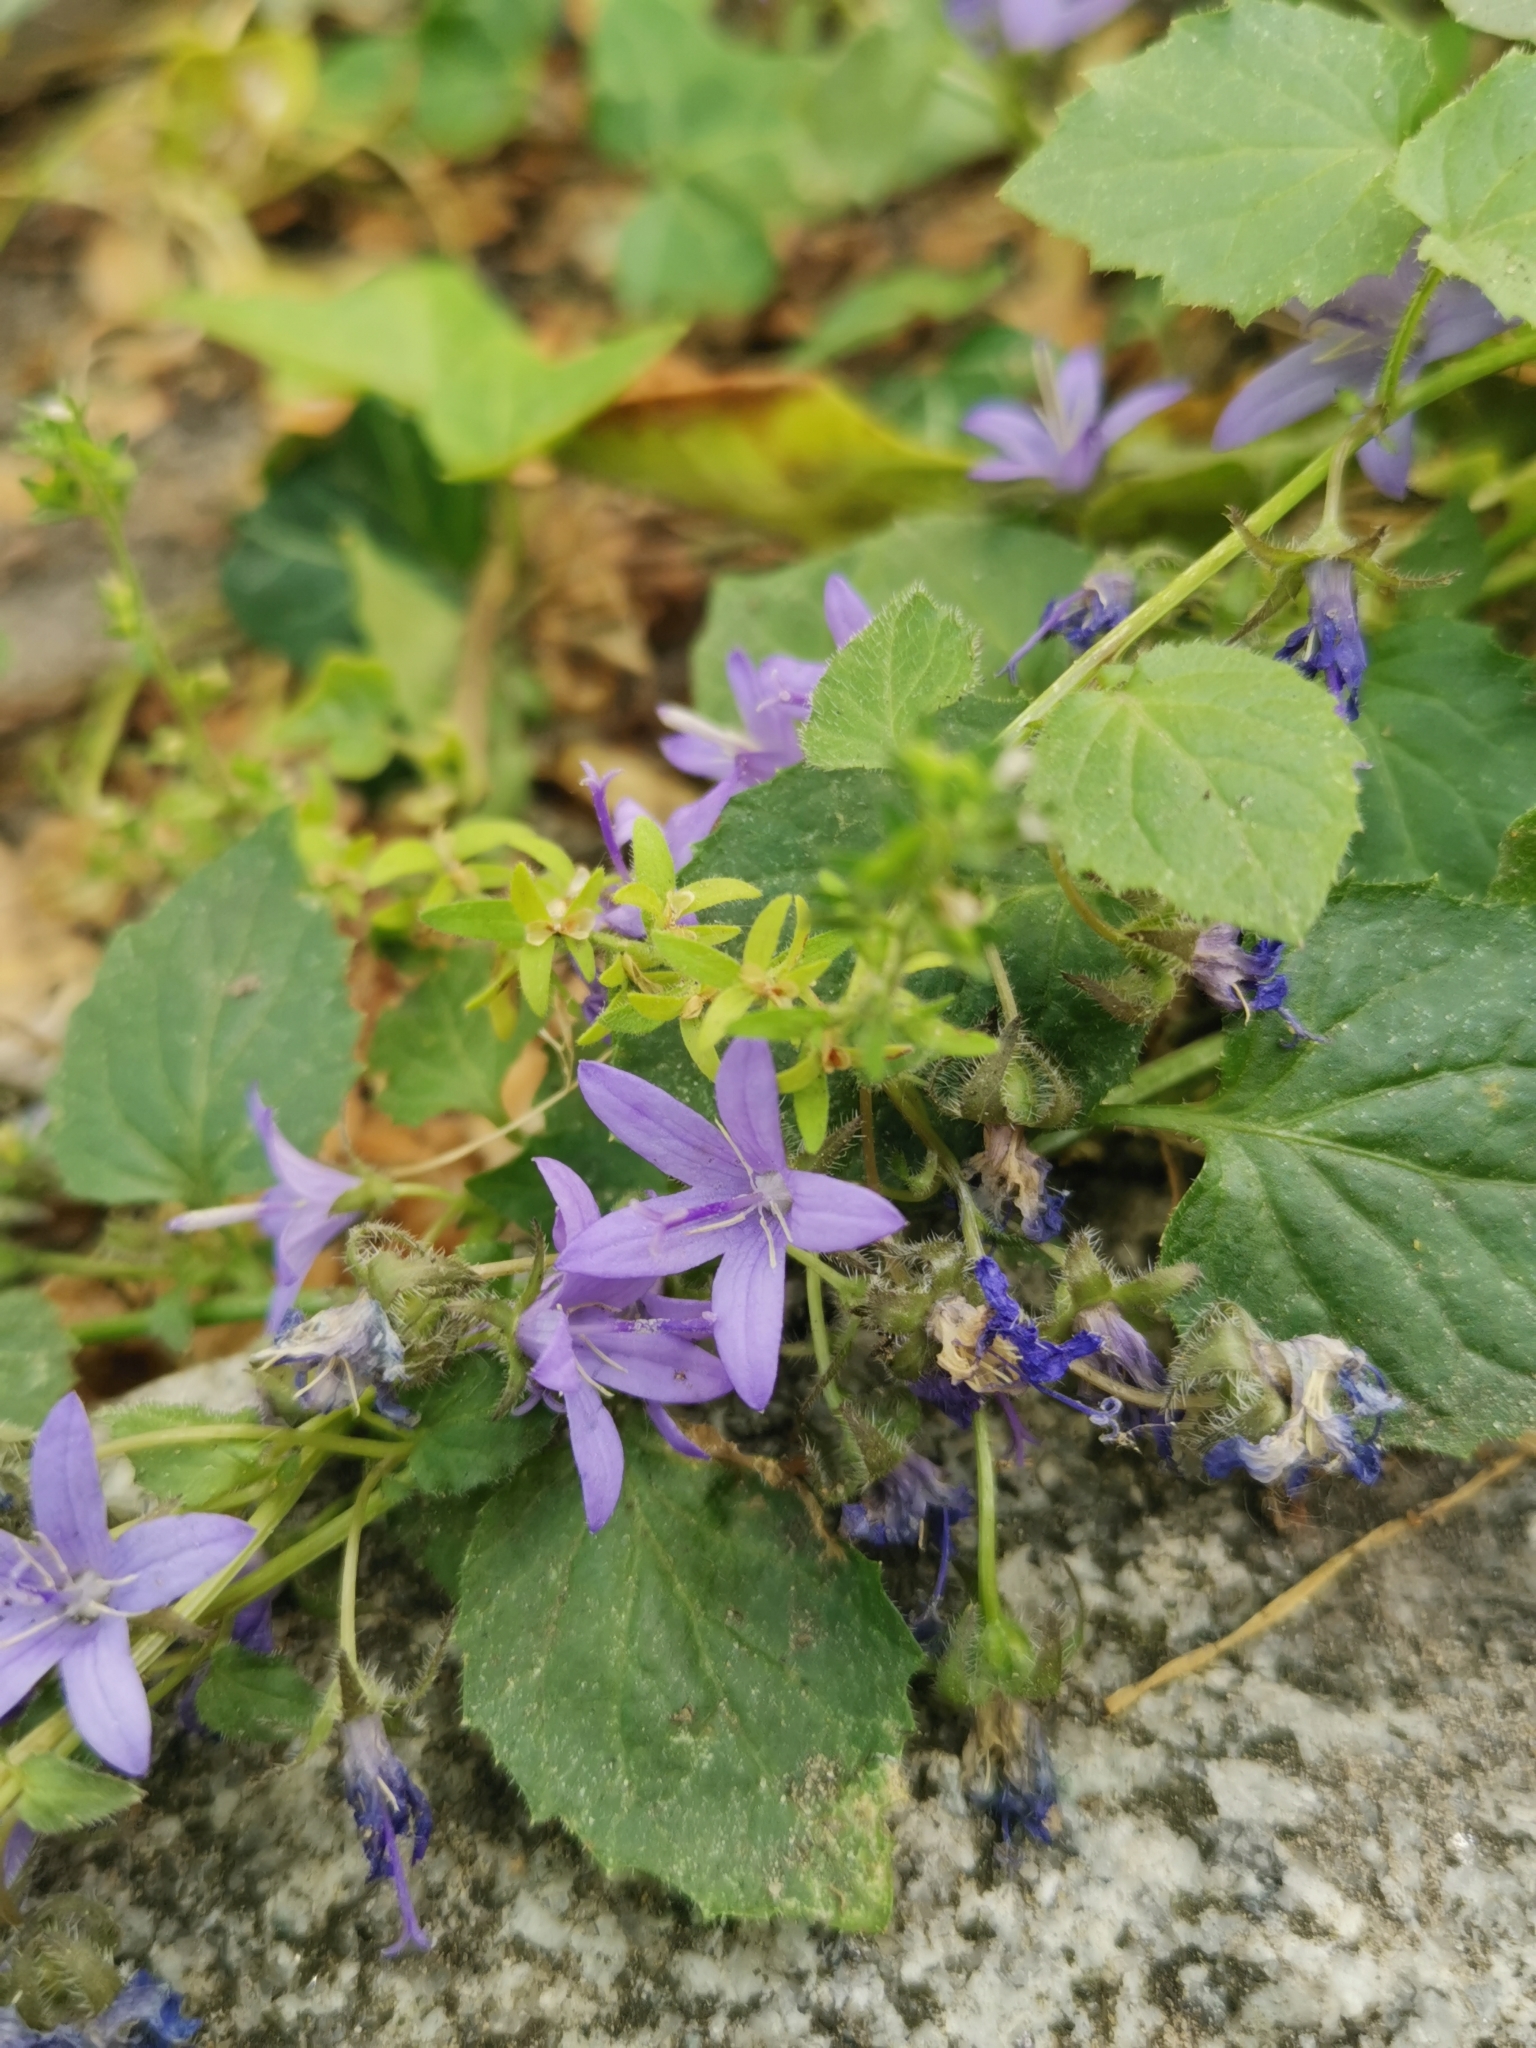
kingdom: Plantae
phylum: Tracheophyta
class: Magnoliopsida
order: Asterales
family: Campanulaceae
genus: Campanula
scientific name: Campanula poscharskyana
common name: Trailing bellflower
